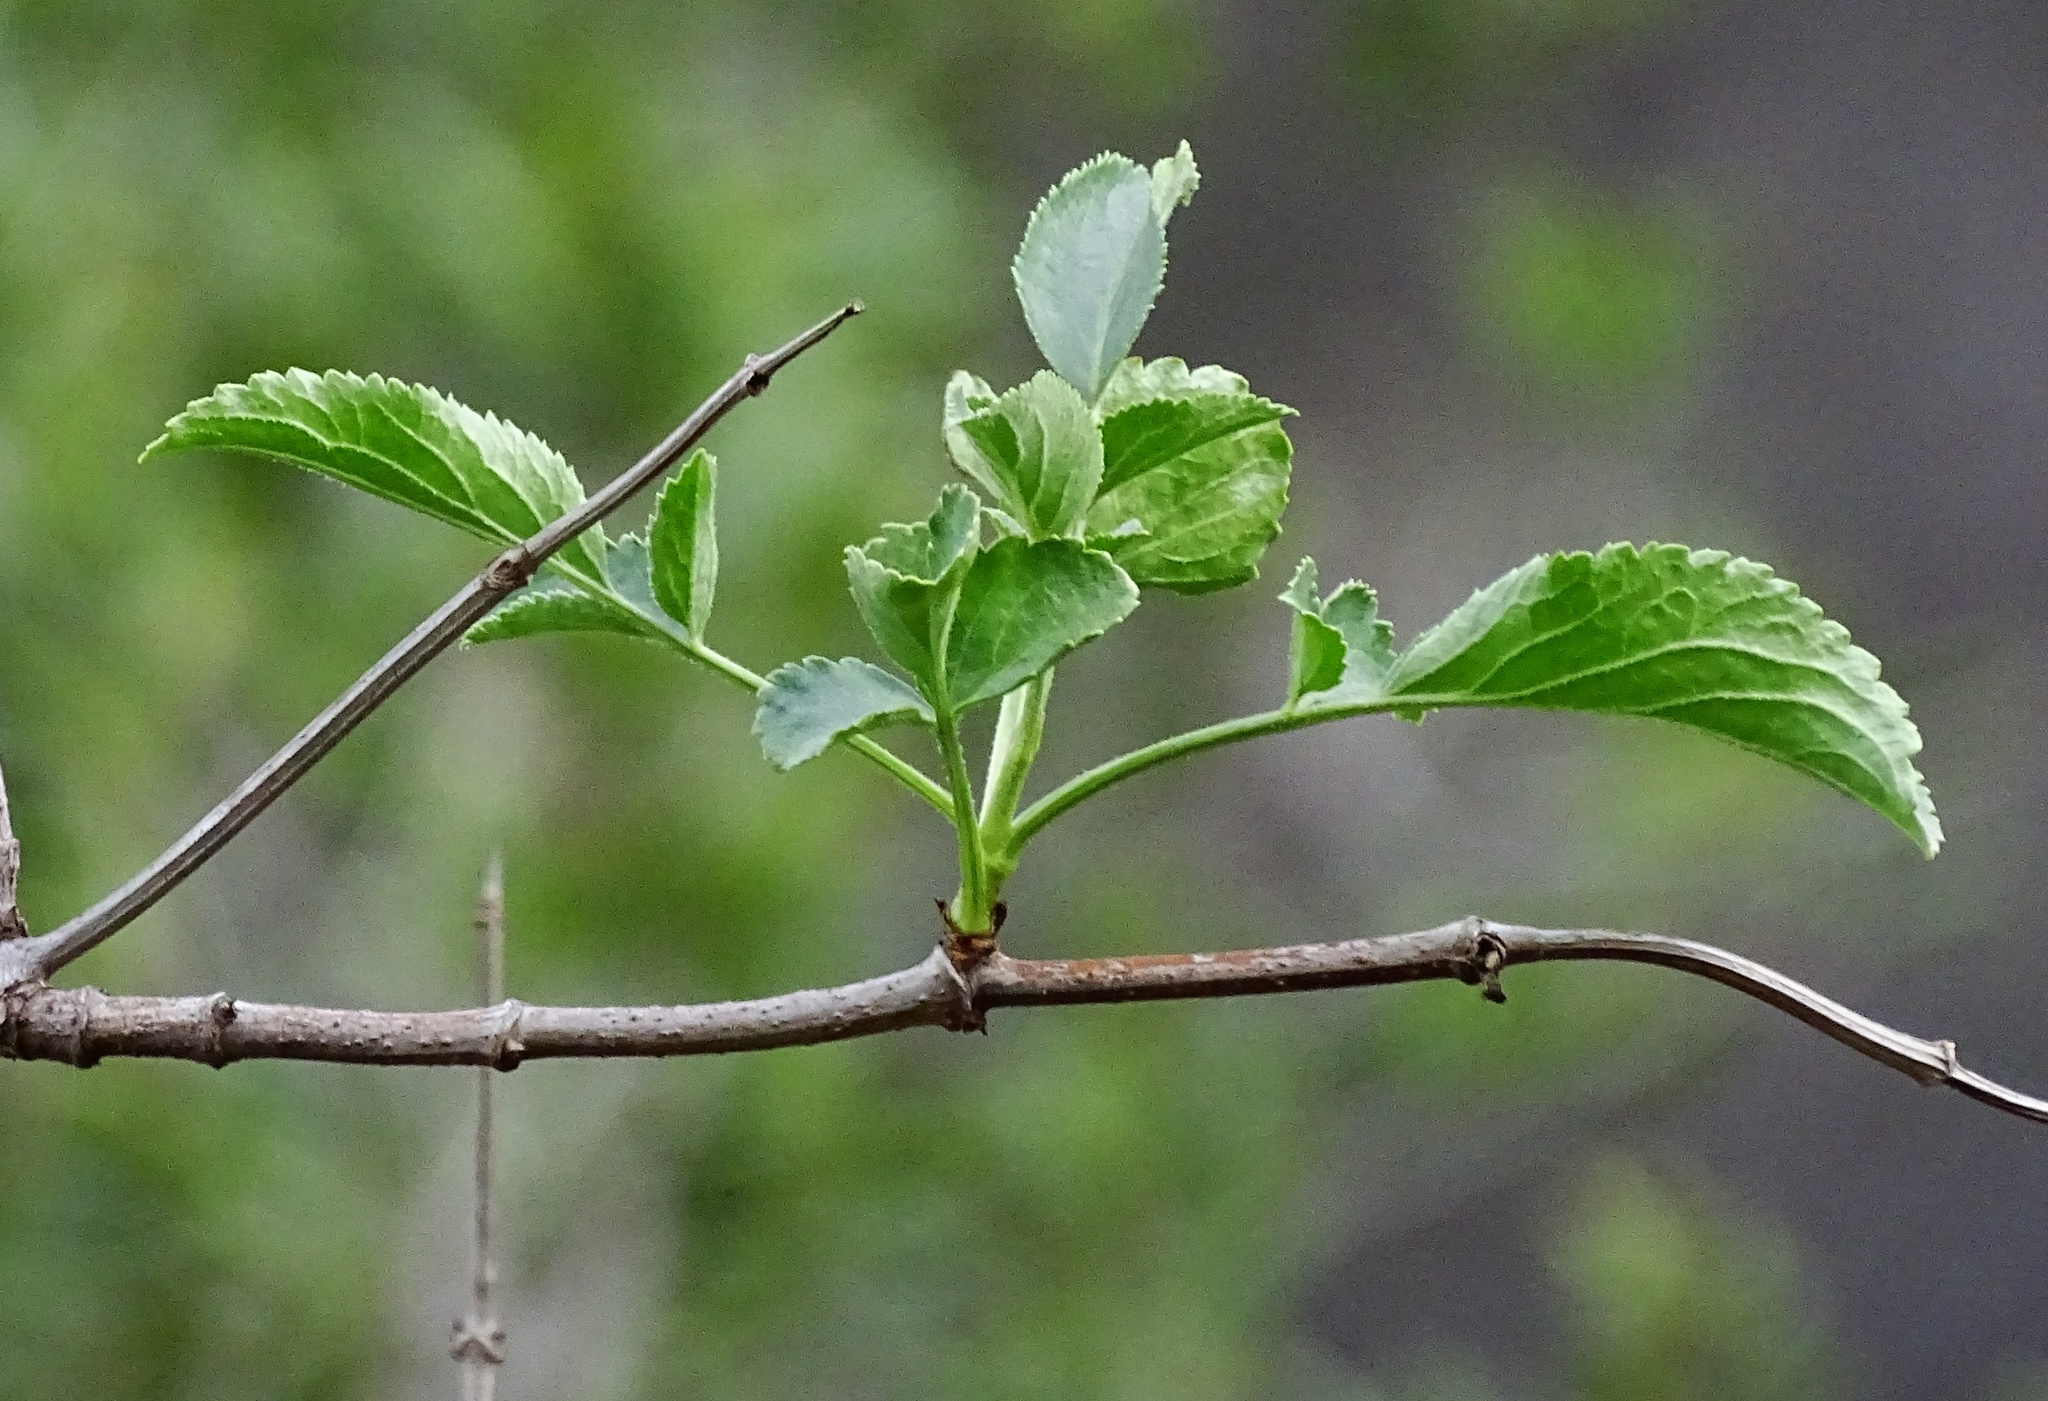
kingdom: Plantae
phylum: Tracheophyta
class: Magnoliopsida
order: Dipsacales
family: Viburnaceae
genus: Sambucus
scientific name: Sambucus cerulea
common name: Blue elder
